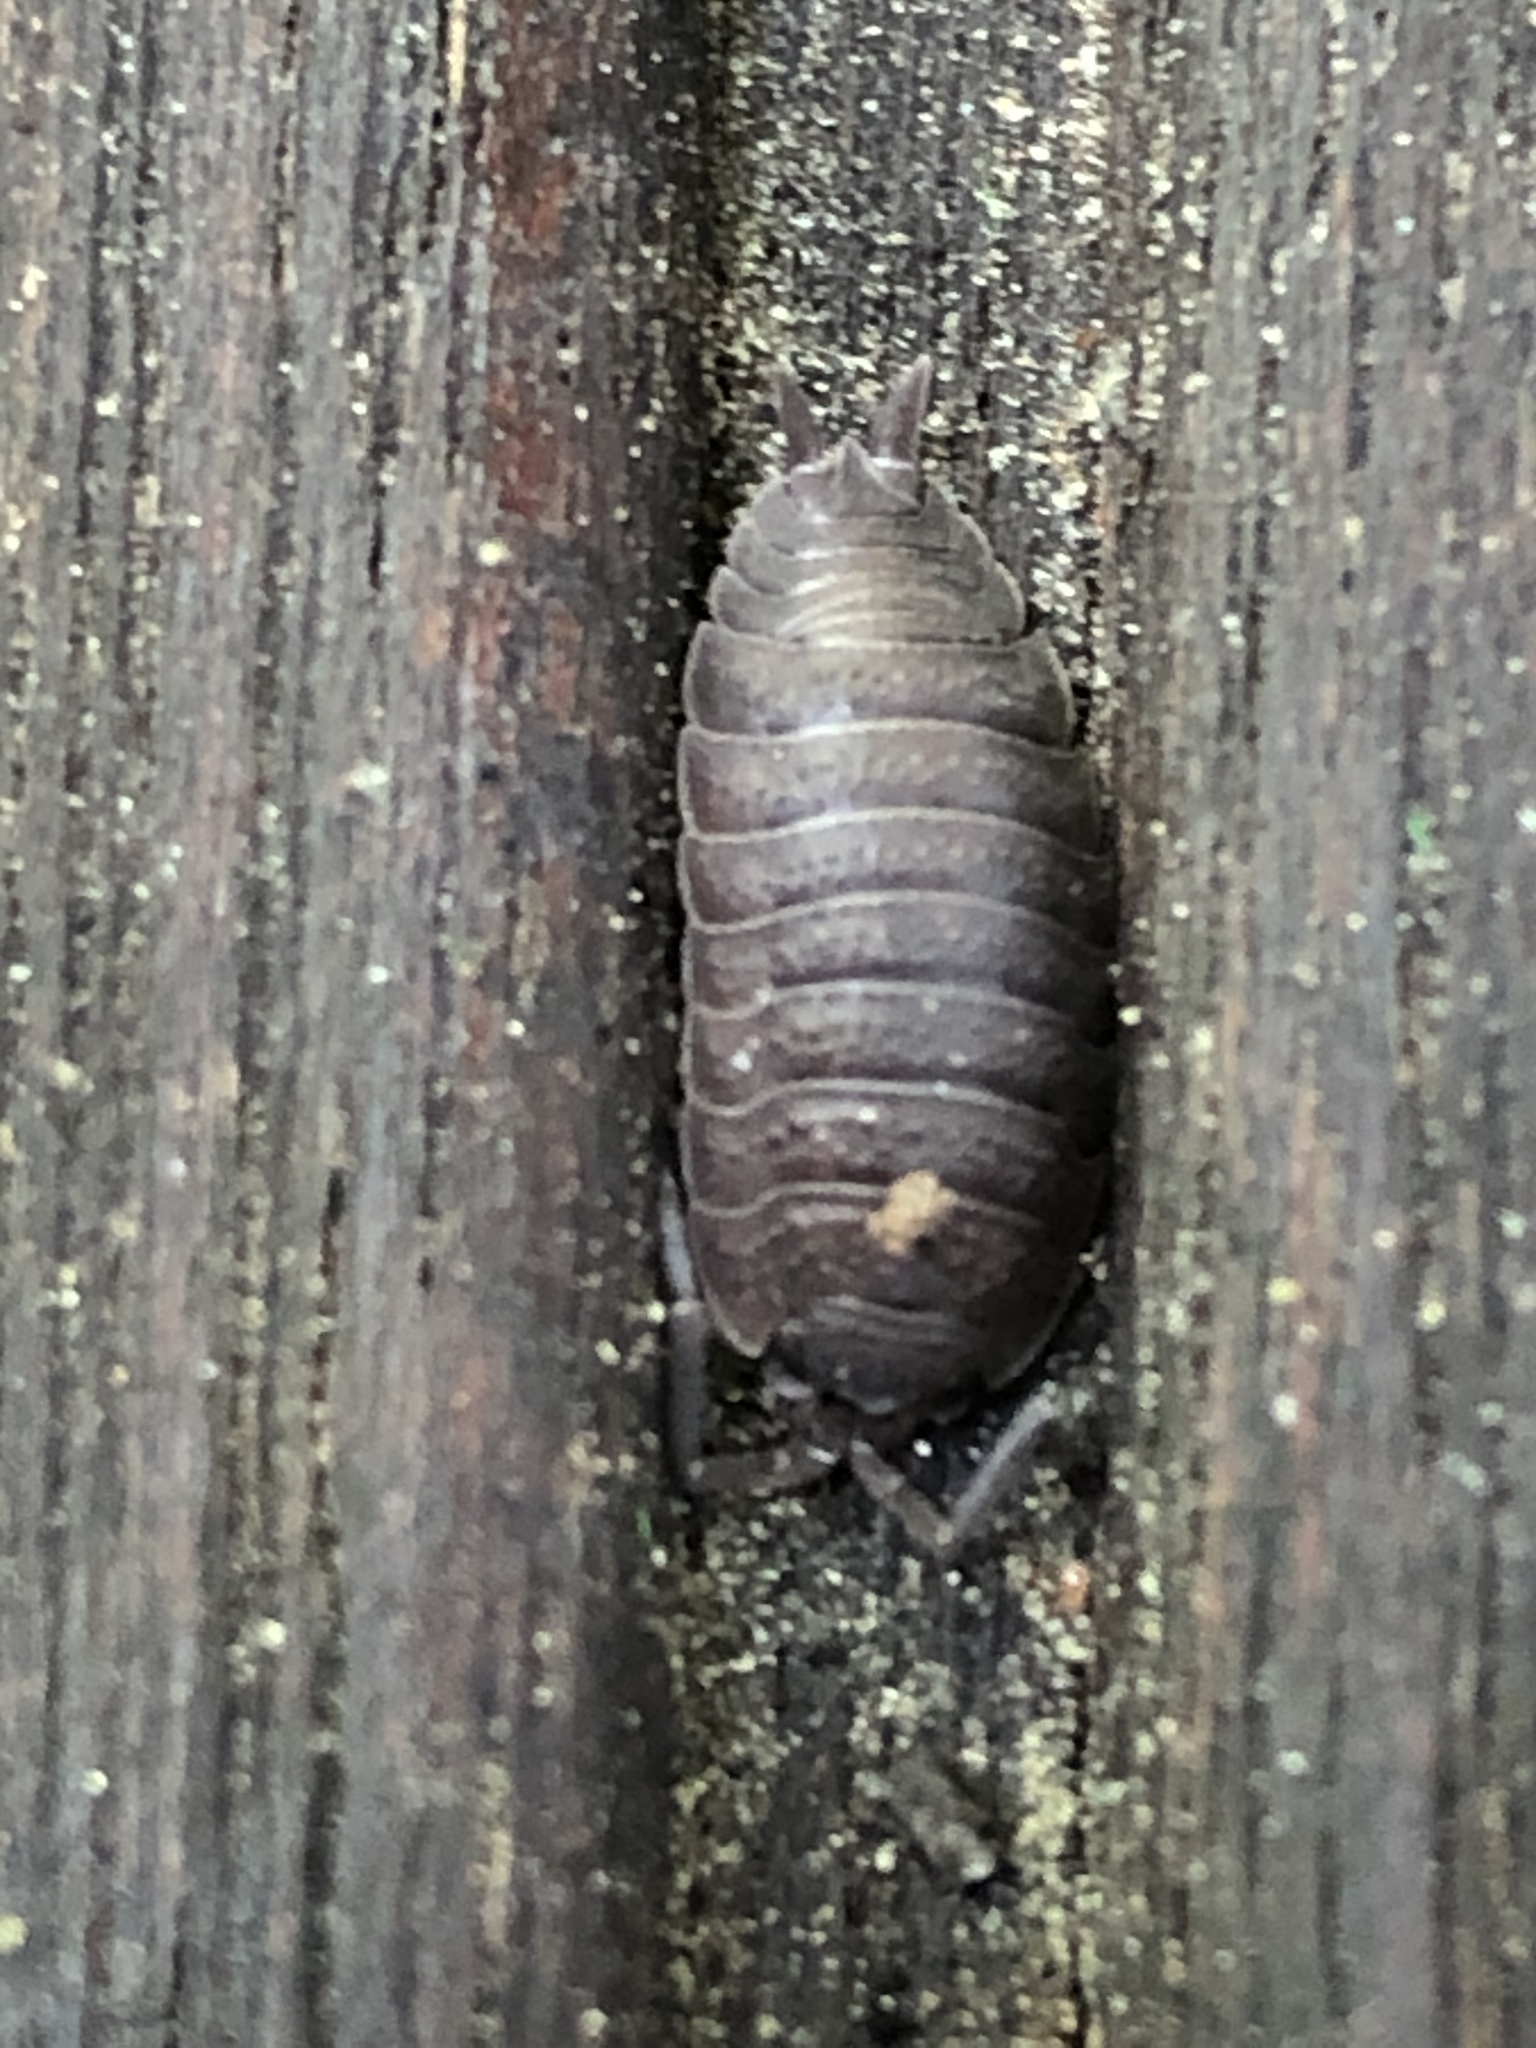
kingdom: Animalia
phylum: Arthropoda
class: Malacostraca
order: Isopoda
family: Porcellionidae
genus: Porcellio
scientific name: Porcellio scaber
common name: Common rough woodlouse
